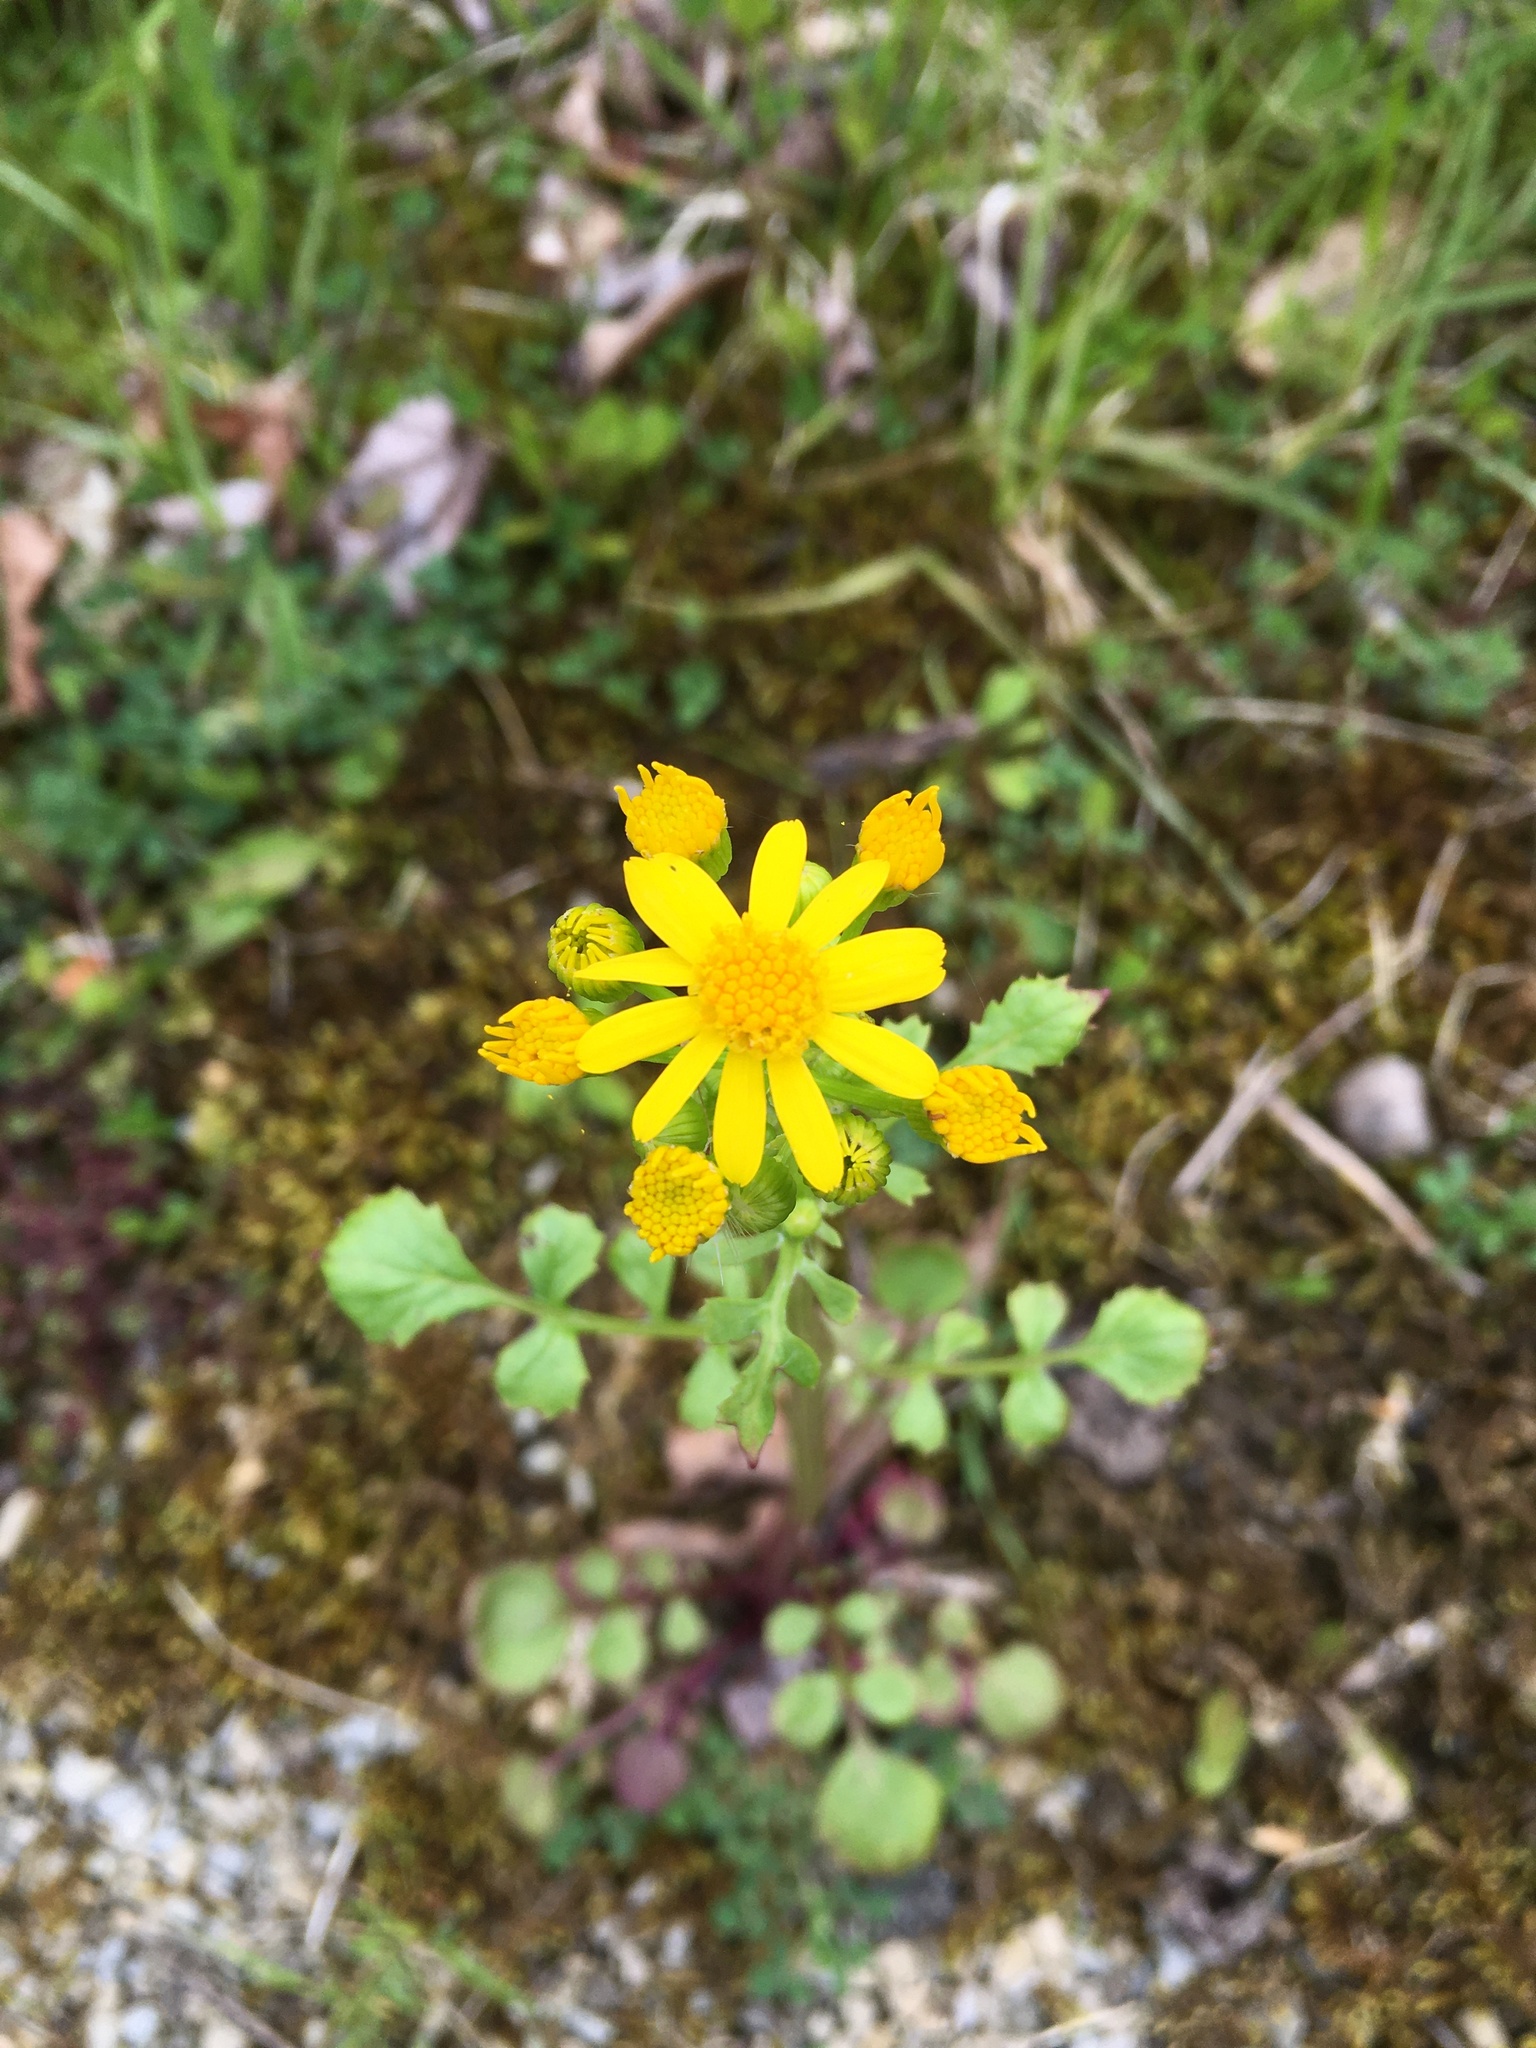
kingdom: Plantae
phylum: Tracheophyta
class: Magnoliopsida
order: Asterales
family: Asteraceae
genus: Packera
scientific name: Packera glabella
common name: Butterweed
